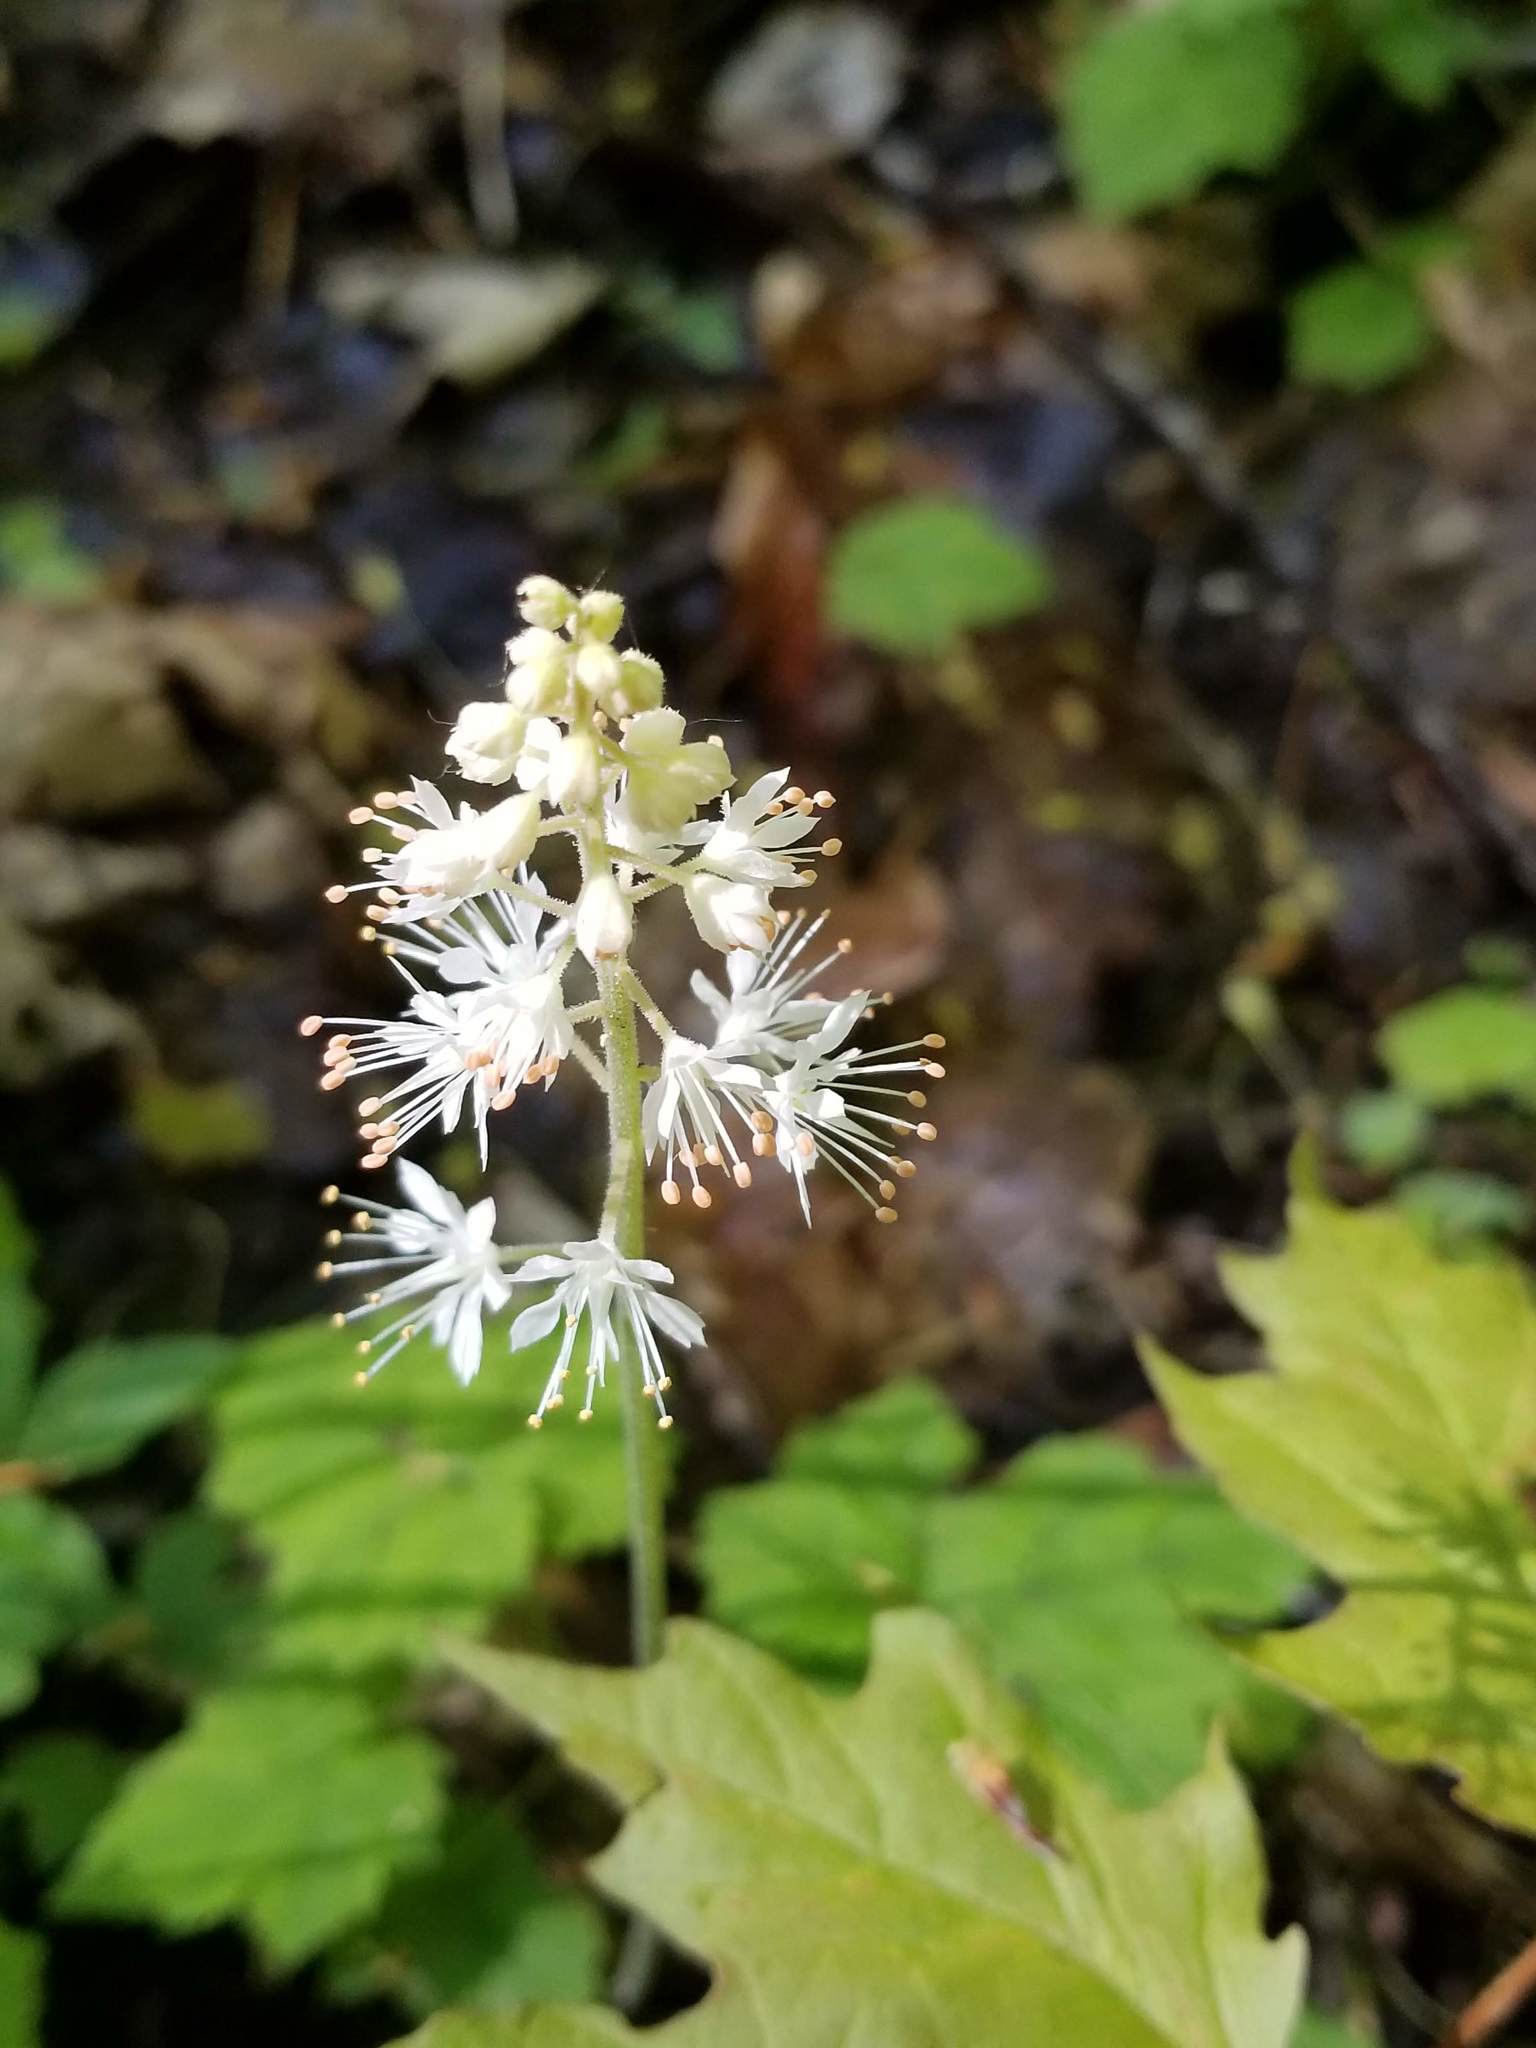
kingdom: Plantae
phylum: Tracheophyta
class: Magnoliopsida
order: Saxifragales
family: Saxifragaceae
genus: Tiarella
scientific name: Tiarella stolonifera
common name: Stoloniferous foamflower
